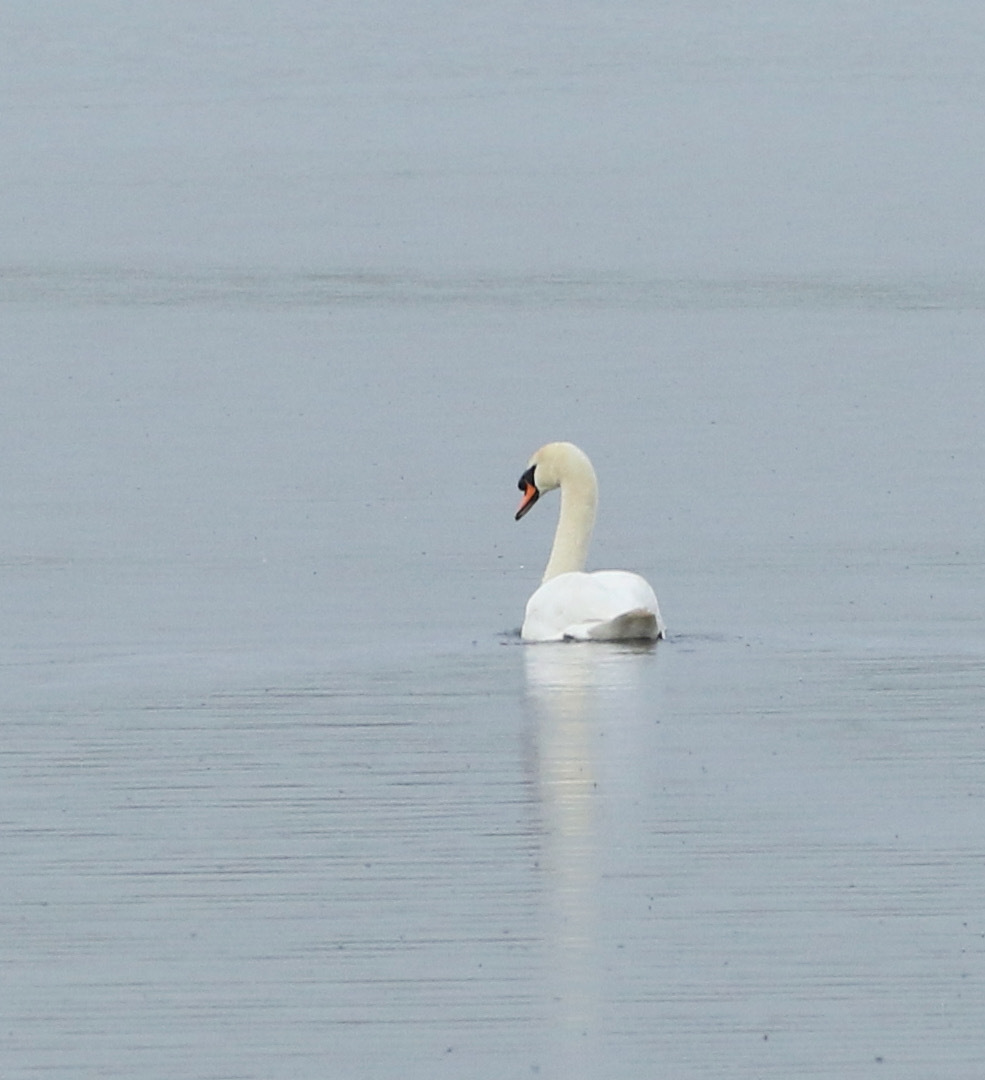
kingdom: Animalia
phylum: Chordata
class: Aves
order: Anseriformes
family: Anatidae
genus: Cygnus
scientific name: Cygnus olor
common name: Mute swan
